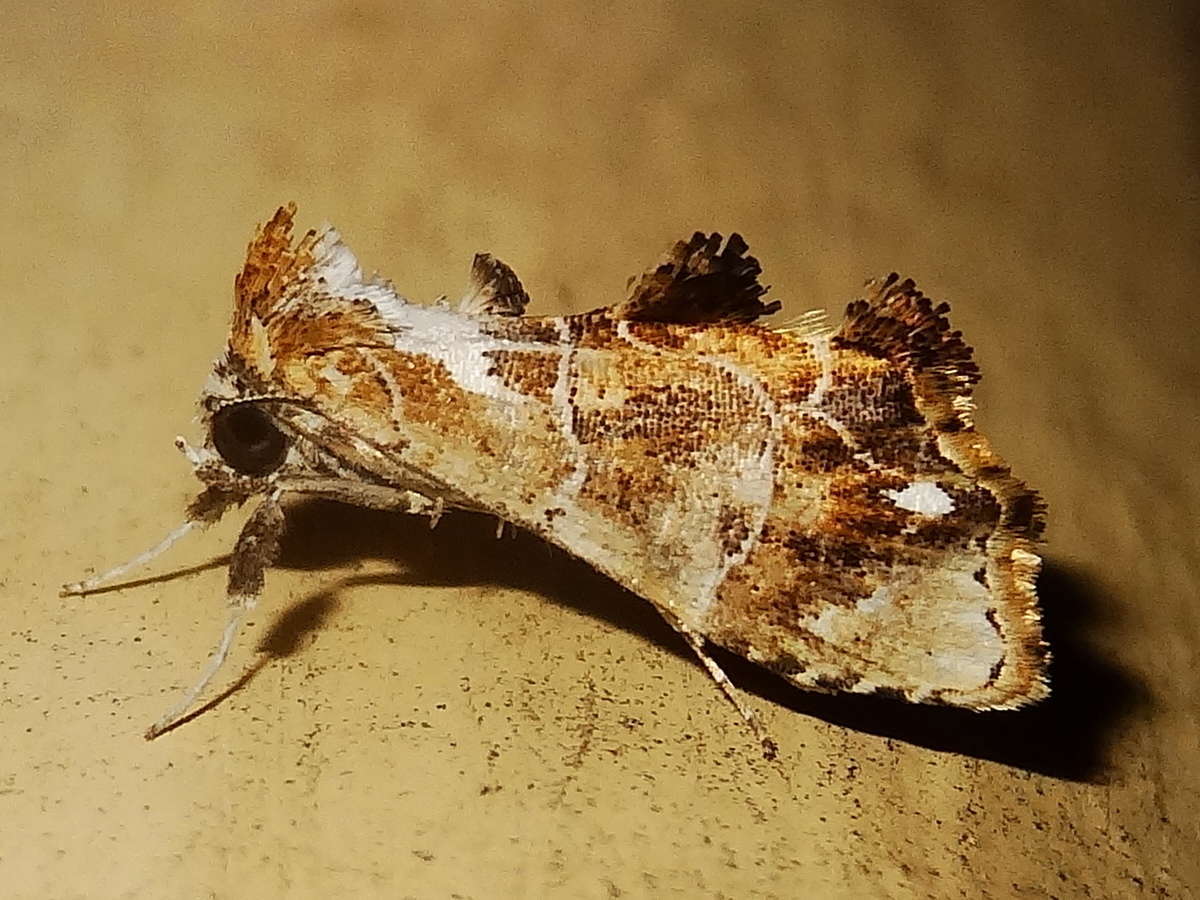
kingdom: Animalia
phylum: Arthropoda
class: Insecta
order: Lepidoptera
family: Erebidae
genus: Arrade
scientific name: Arrade leucocosmalis
